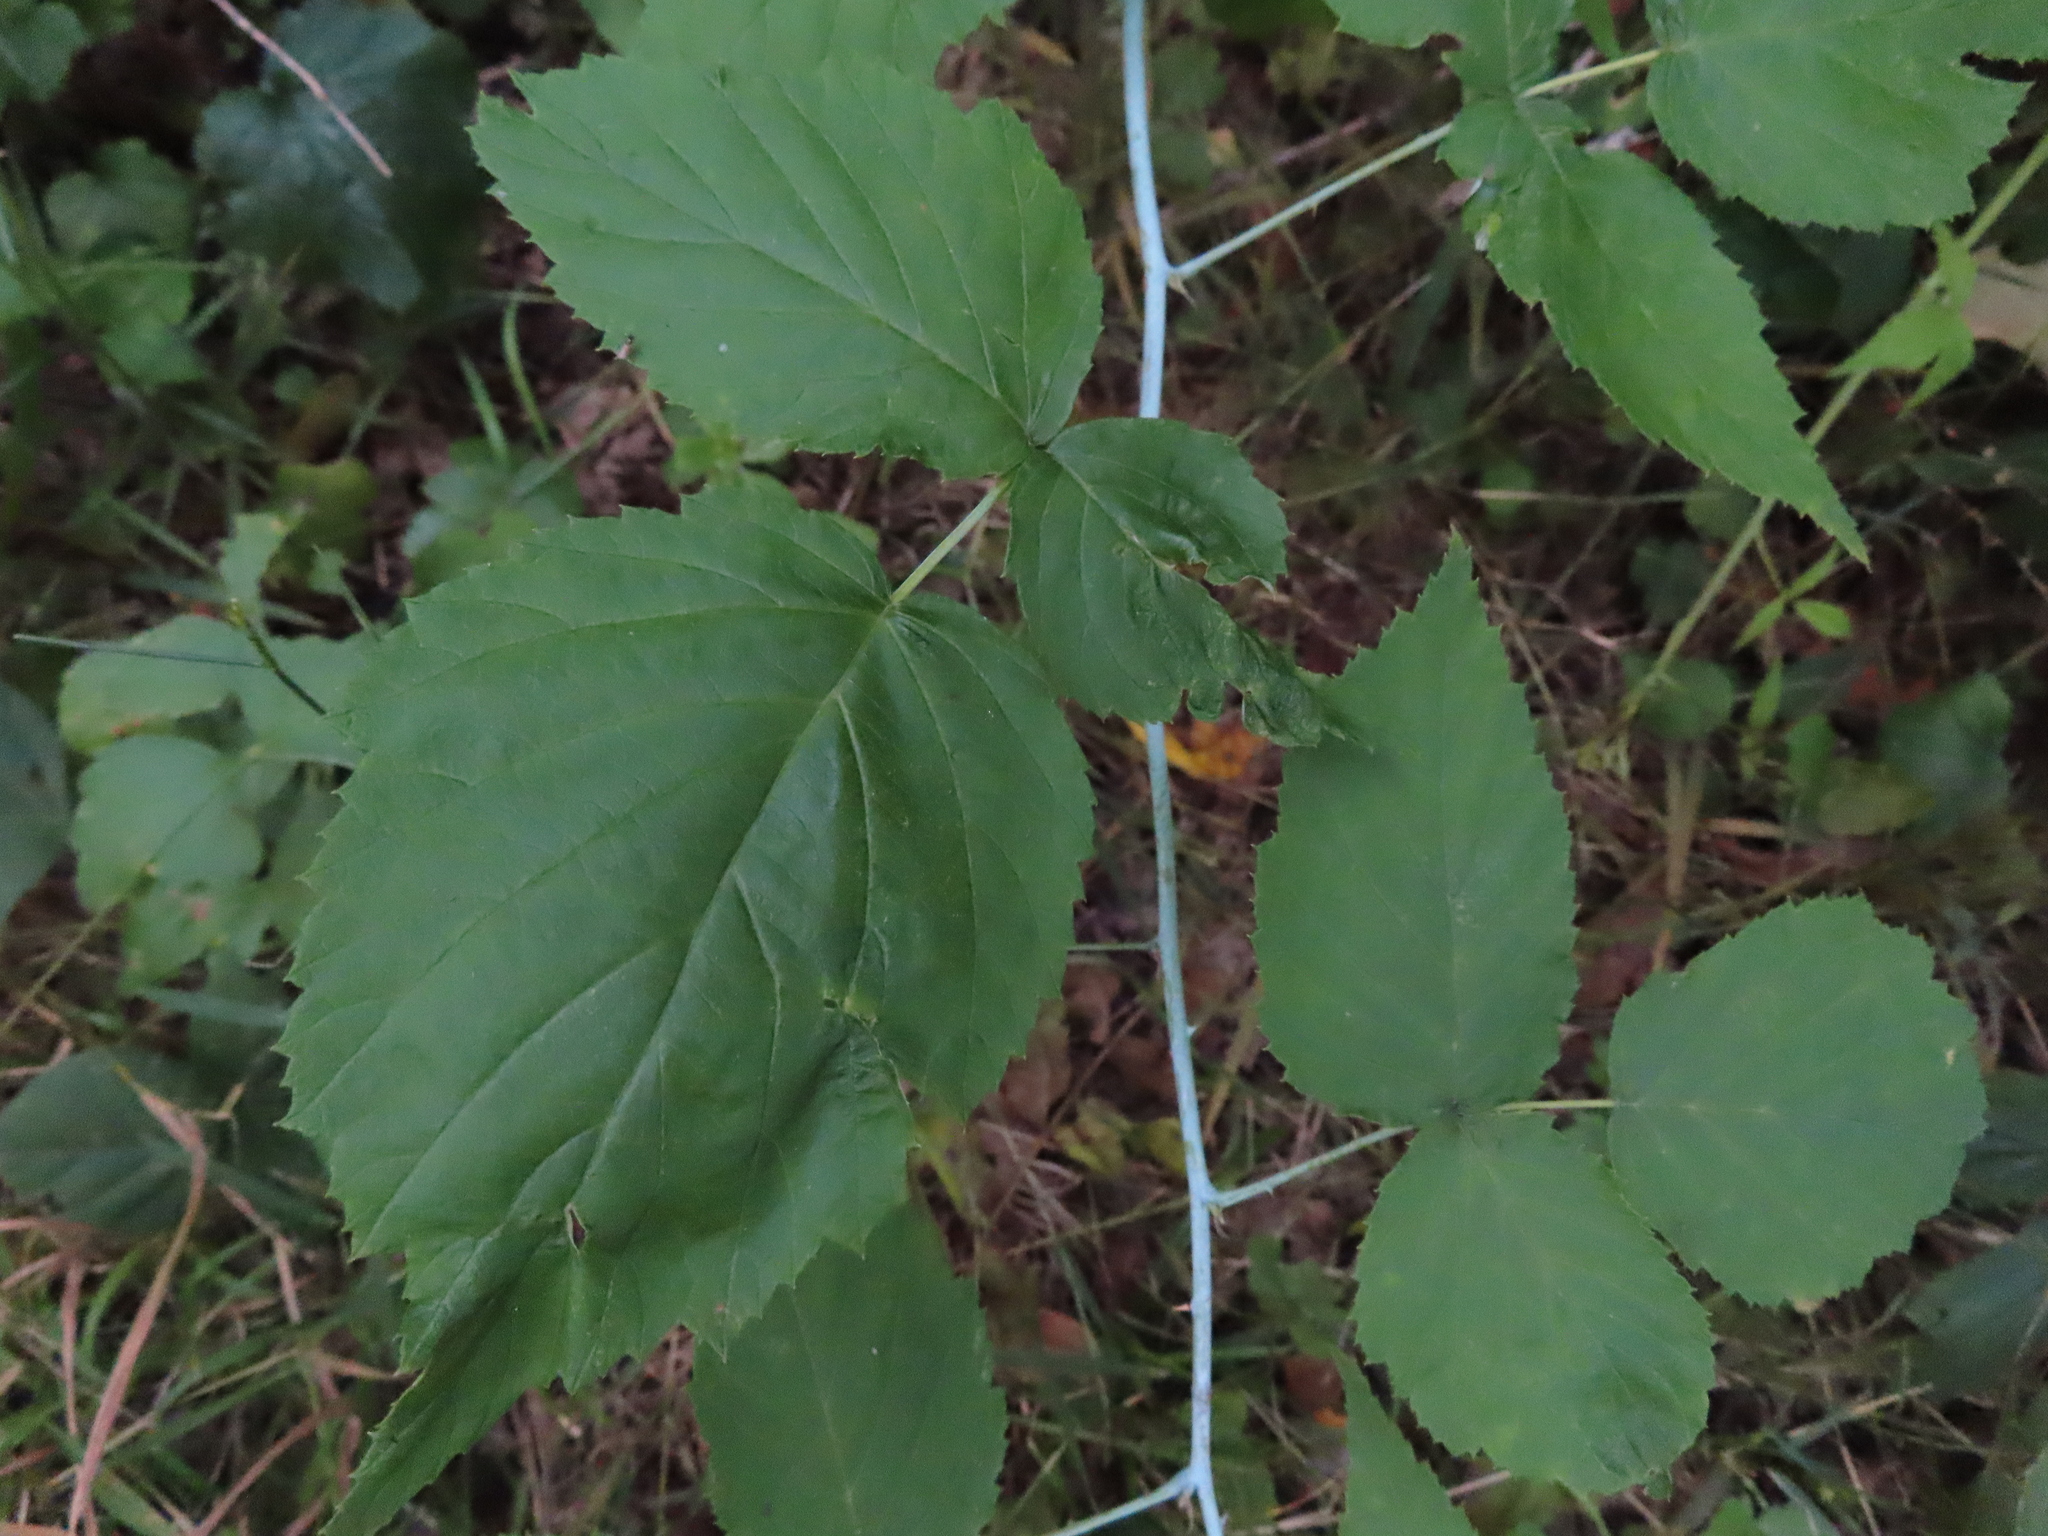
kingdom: Plantae
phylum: Tracheophyta
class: Magnoliopsida
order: Rosales
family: Rosaceae
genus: Rubus
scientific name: Rubus occidentalis
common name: Black raspberry
